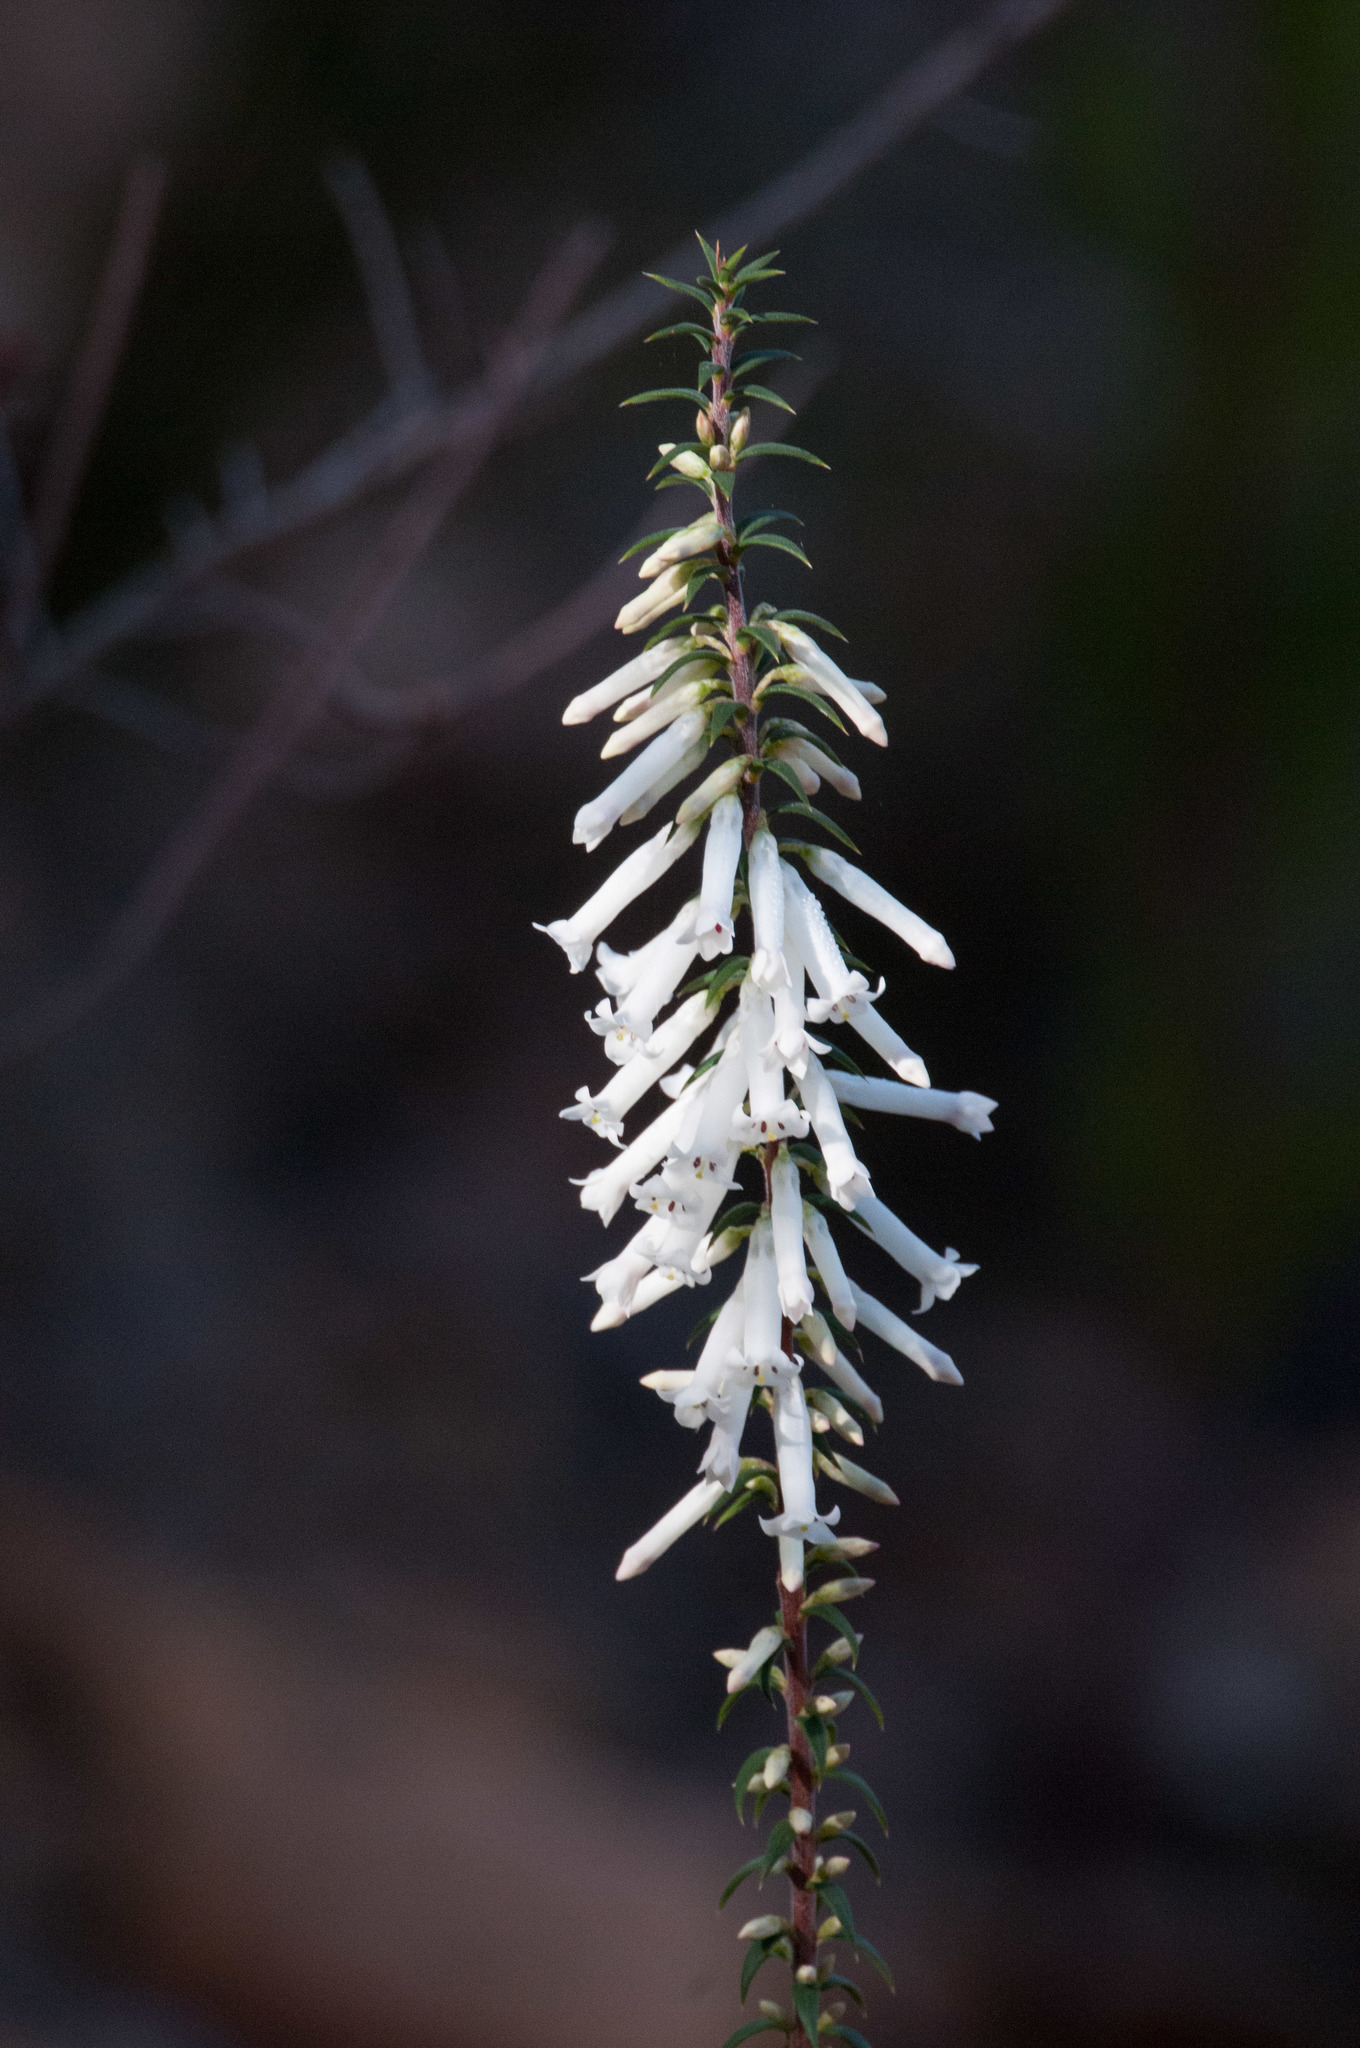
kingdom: Plantae
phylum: Tracheophyta
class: Magnoliopsida
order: Ericales
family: Ericaceae
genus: Epacris
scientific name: Epacris impressa
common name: Common-heath
